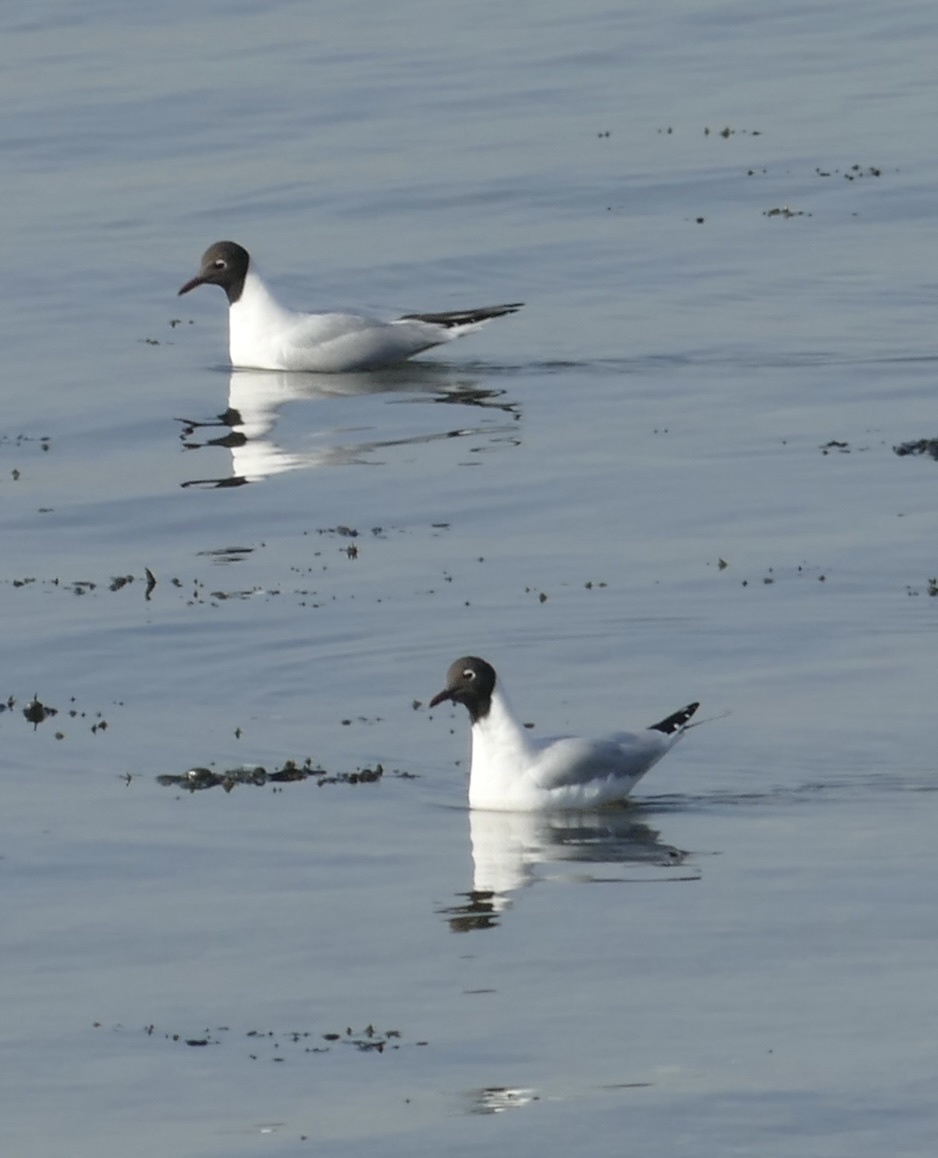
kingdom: Animalia
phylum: Chordata
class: Aves
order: Charadriiformes
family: Laridae
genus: Chroicocephalus
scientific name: Chroicocephalus ridibundus
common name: Black-headed gull
